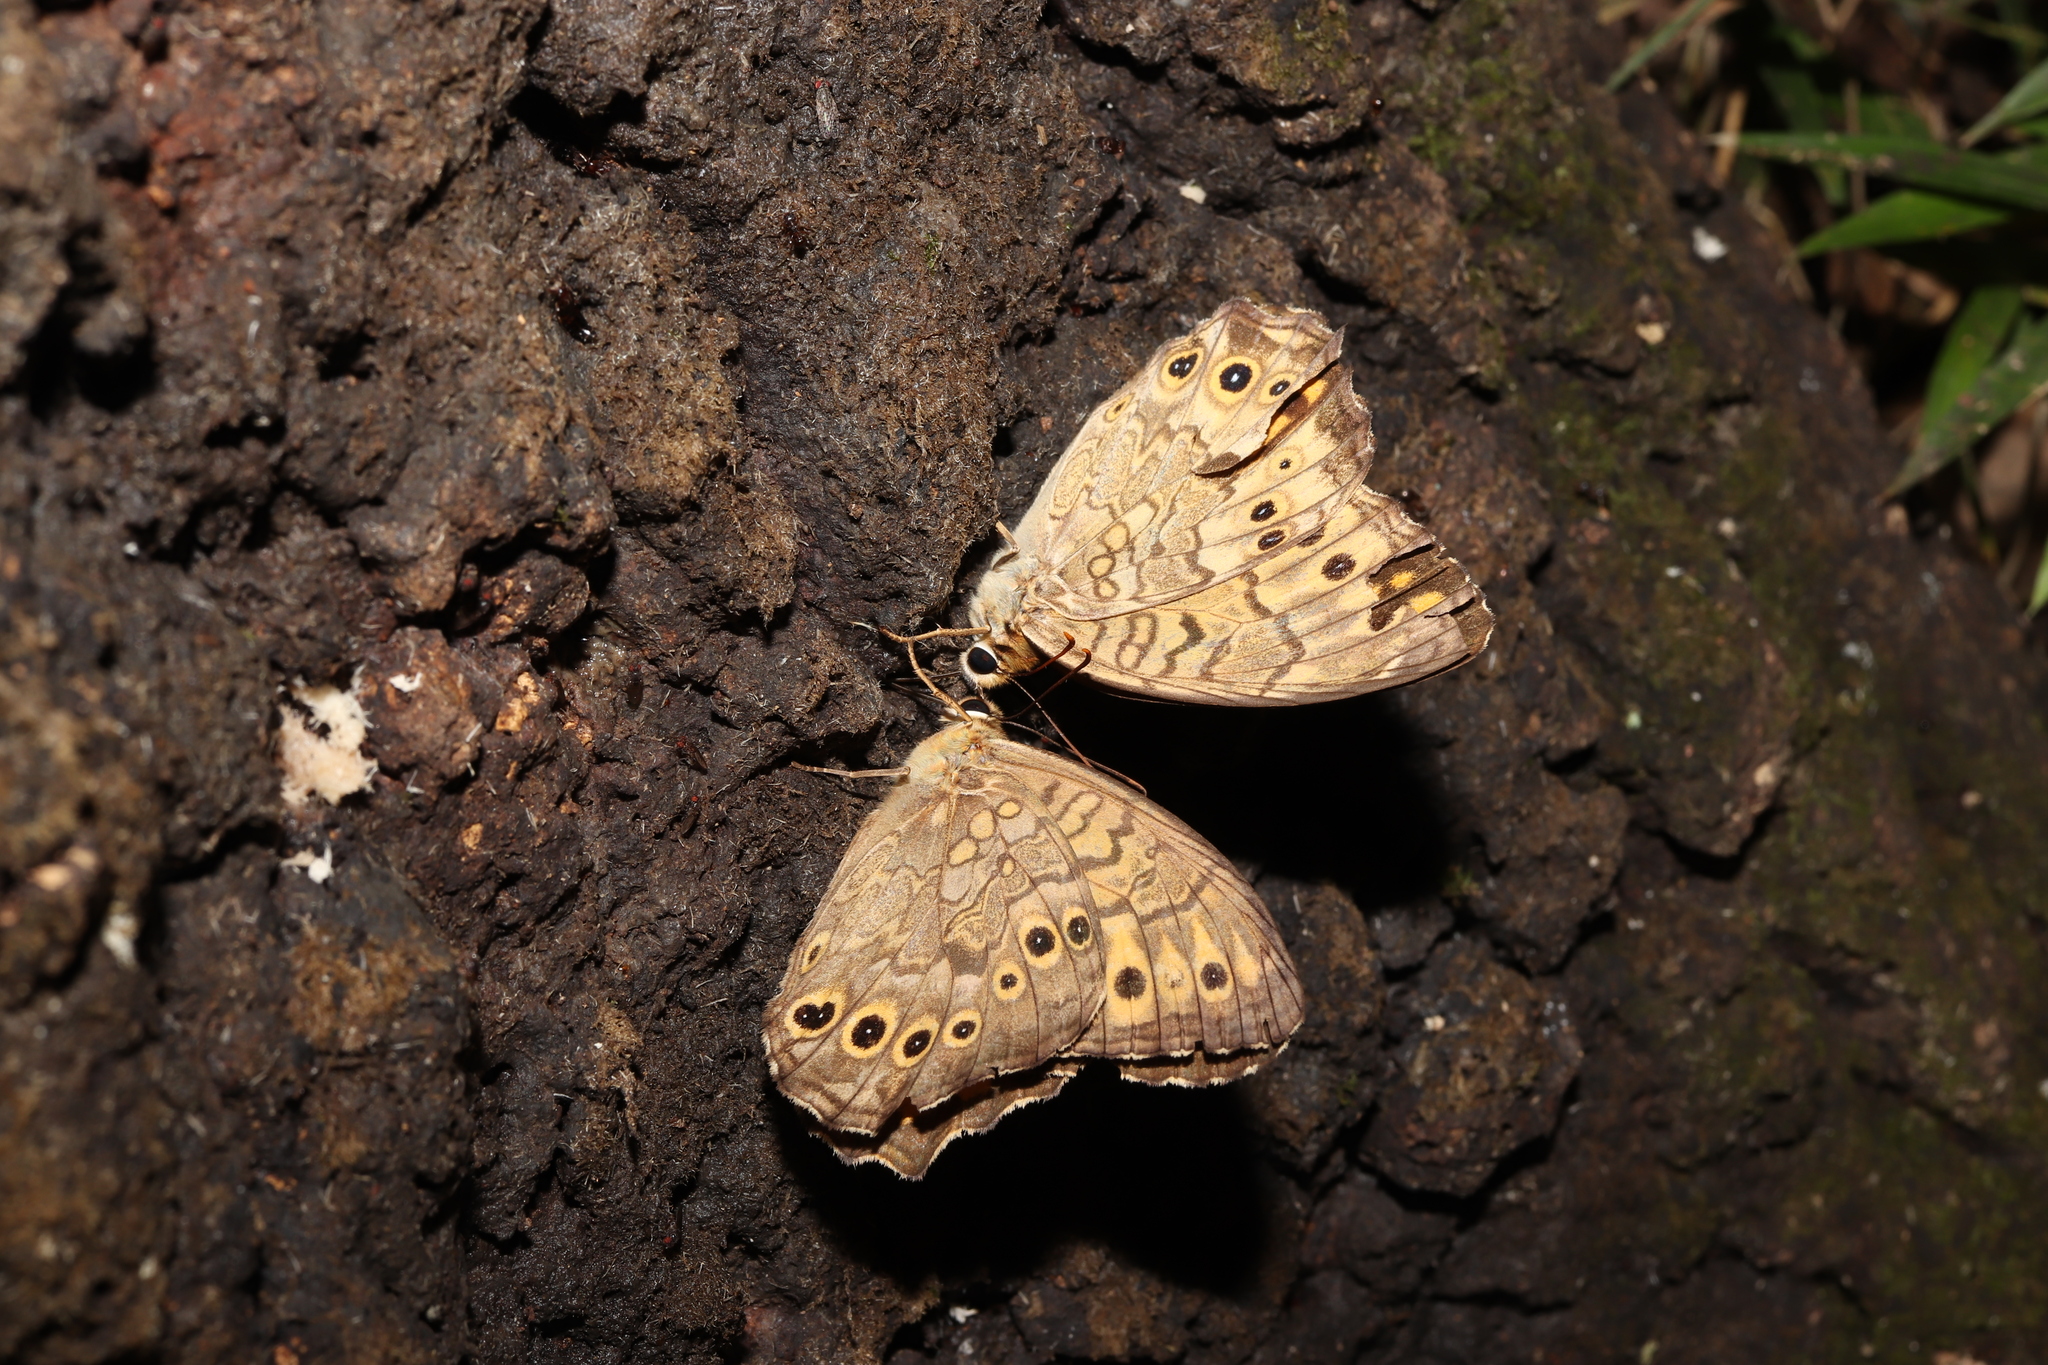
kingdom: Animalia
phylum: Arthropoda
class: Insecta
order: Lepidoptera
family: Nymphalidae
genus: Neope
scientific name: Neope goschkevitschii
